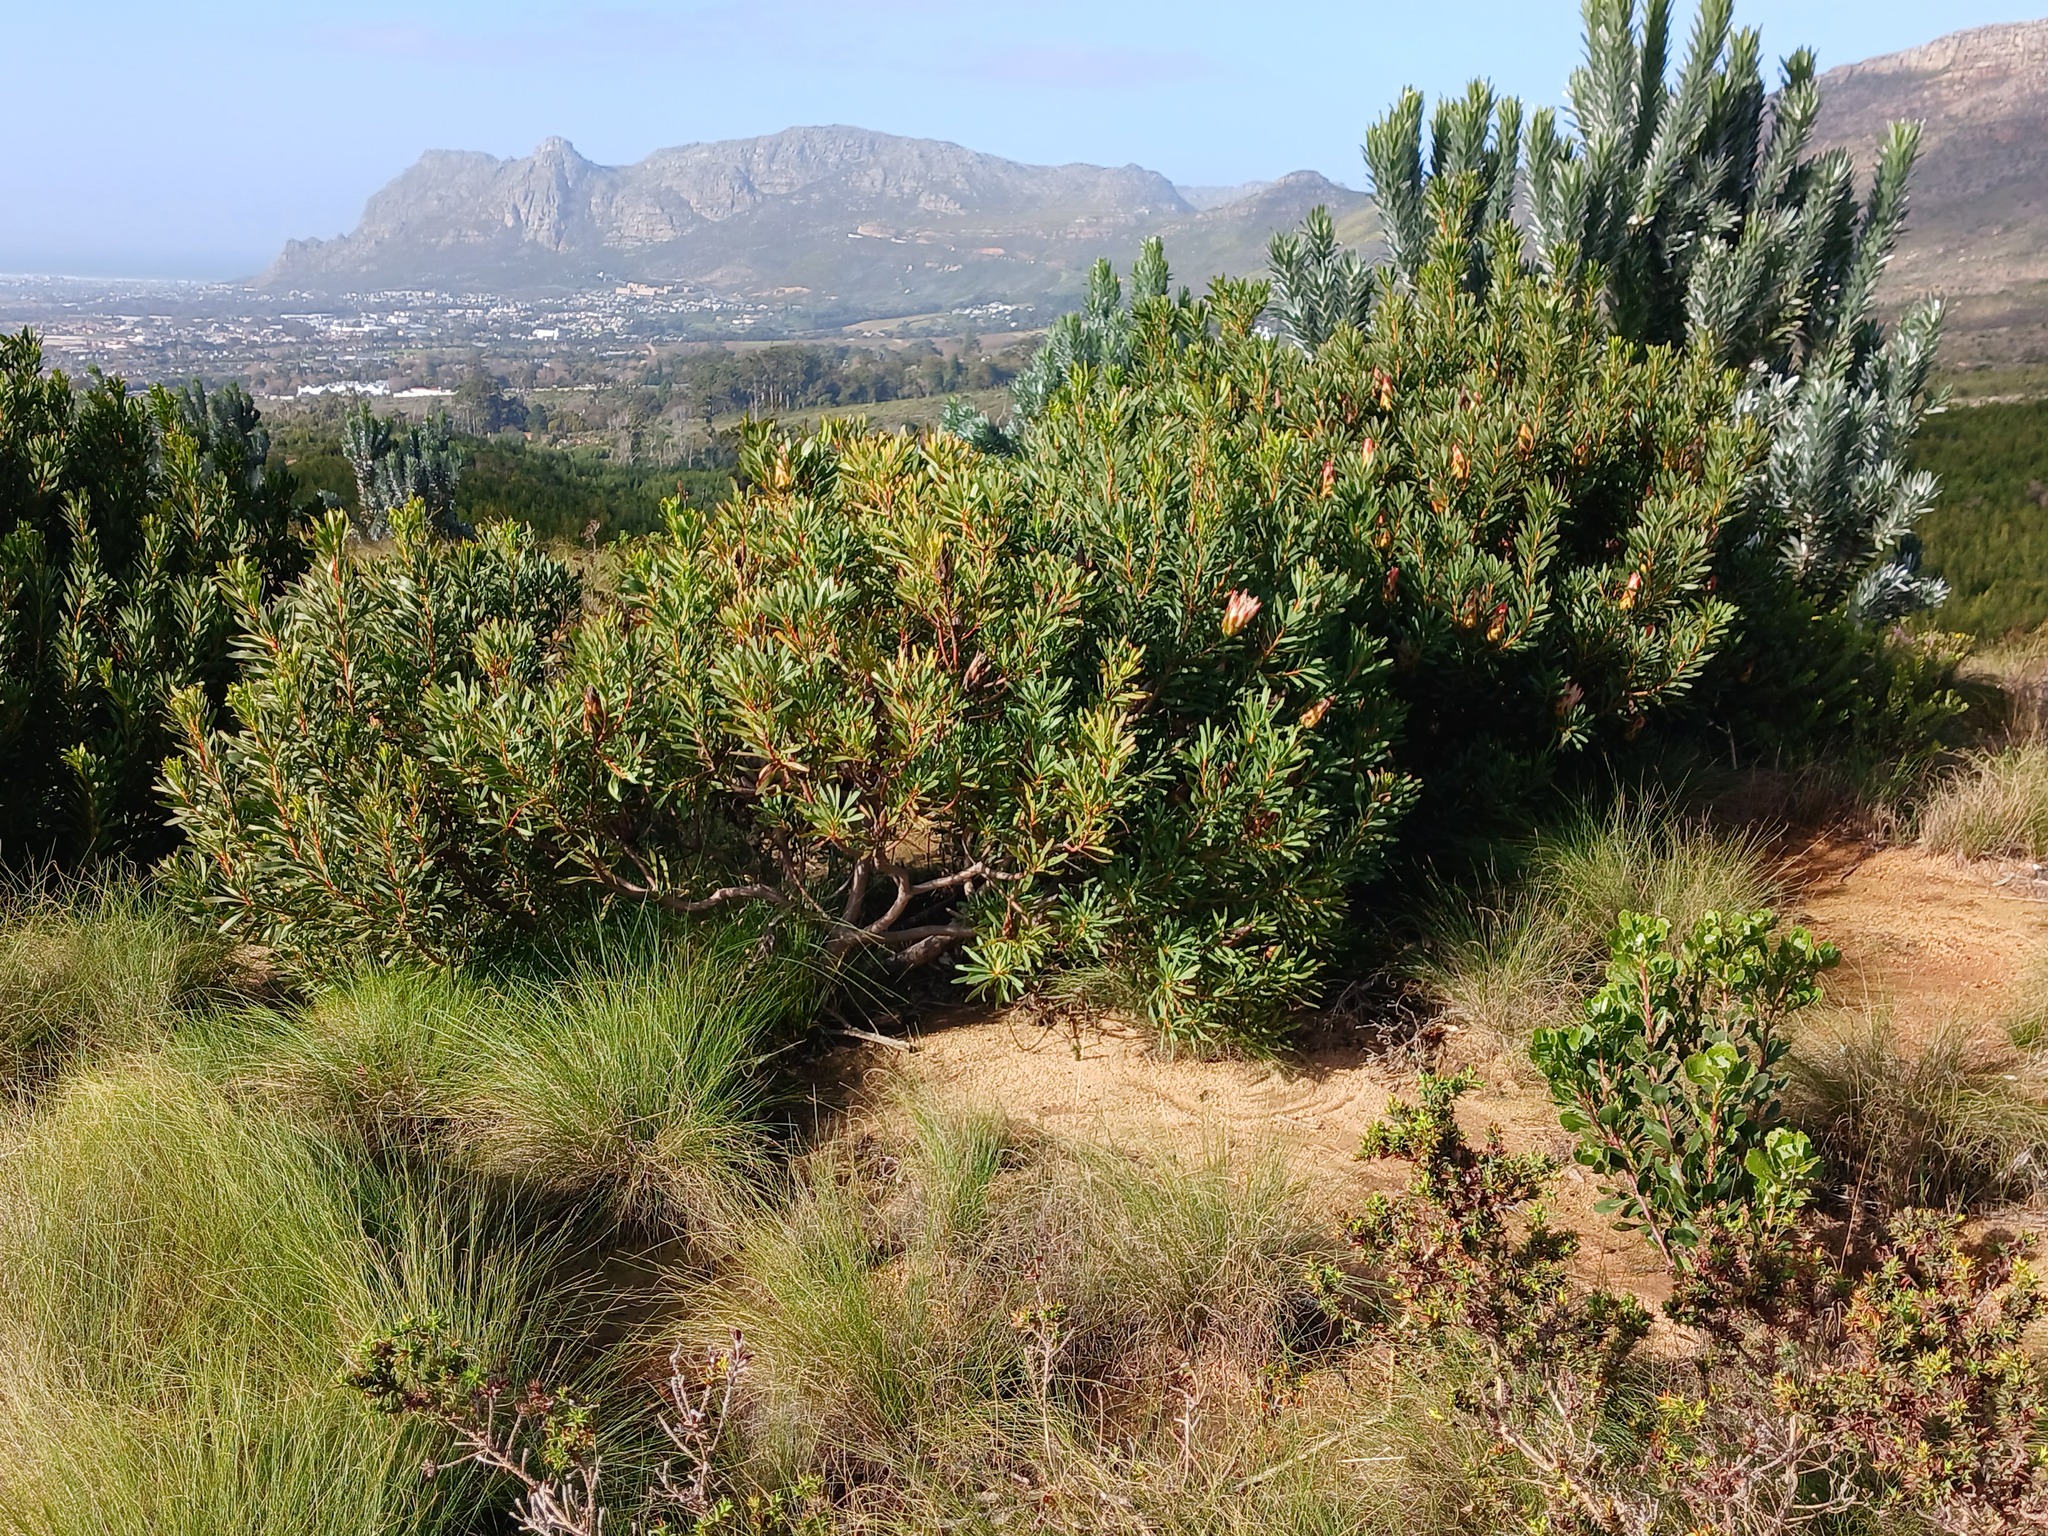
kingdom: Plantae
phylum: Tracheophyta
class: Magnoliopsida
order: Proteales
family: Proteaceae
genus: Protea
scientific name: Protea repens
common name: Sugarbush
